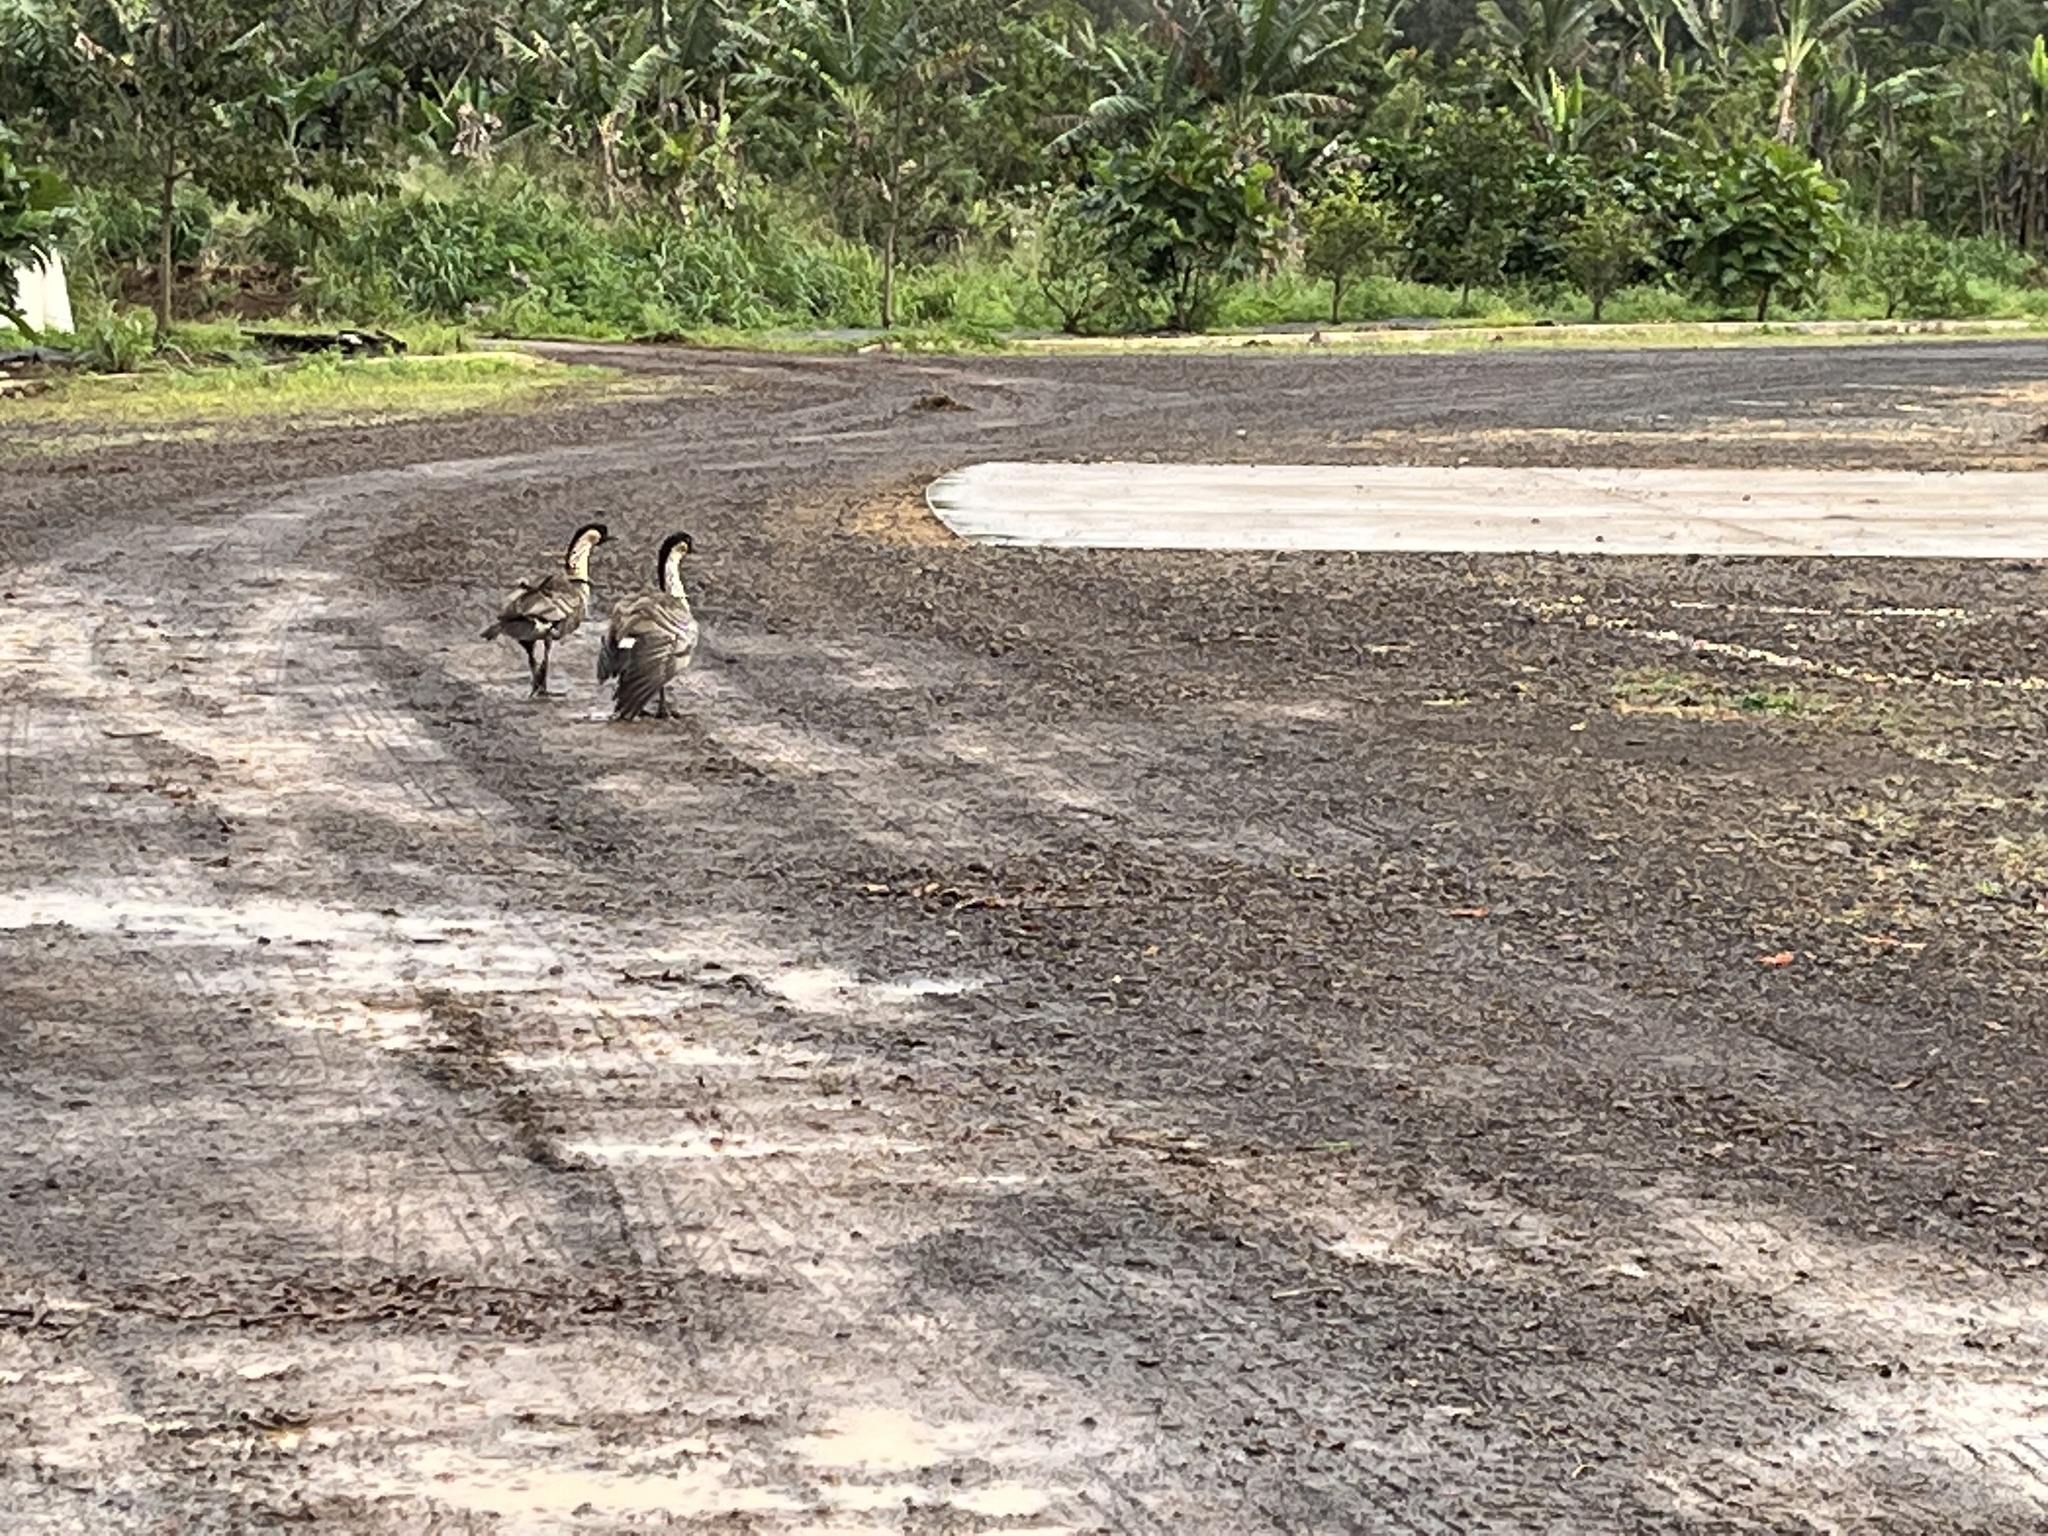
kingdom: Animalia
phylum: Chordata
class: Aves
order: Anseriformes
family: Anatidae
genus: Branta
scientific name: Branta sandvicensis
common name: Nene
